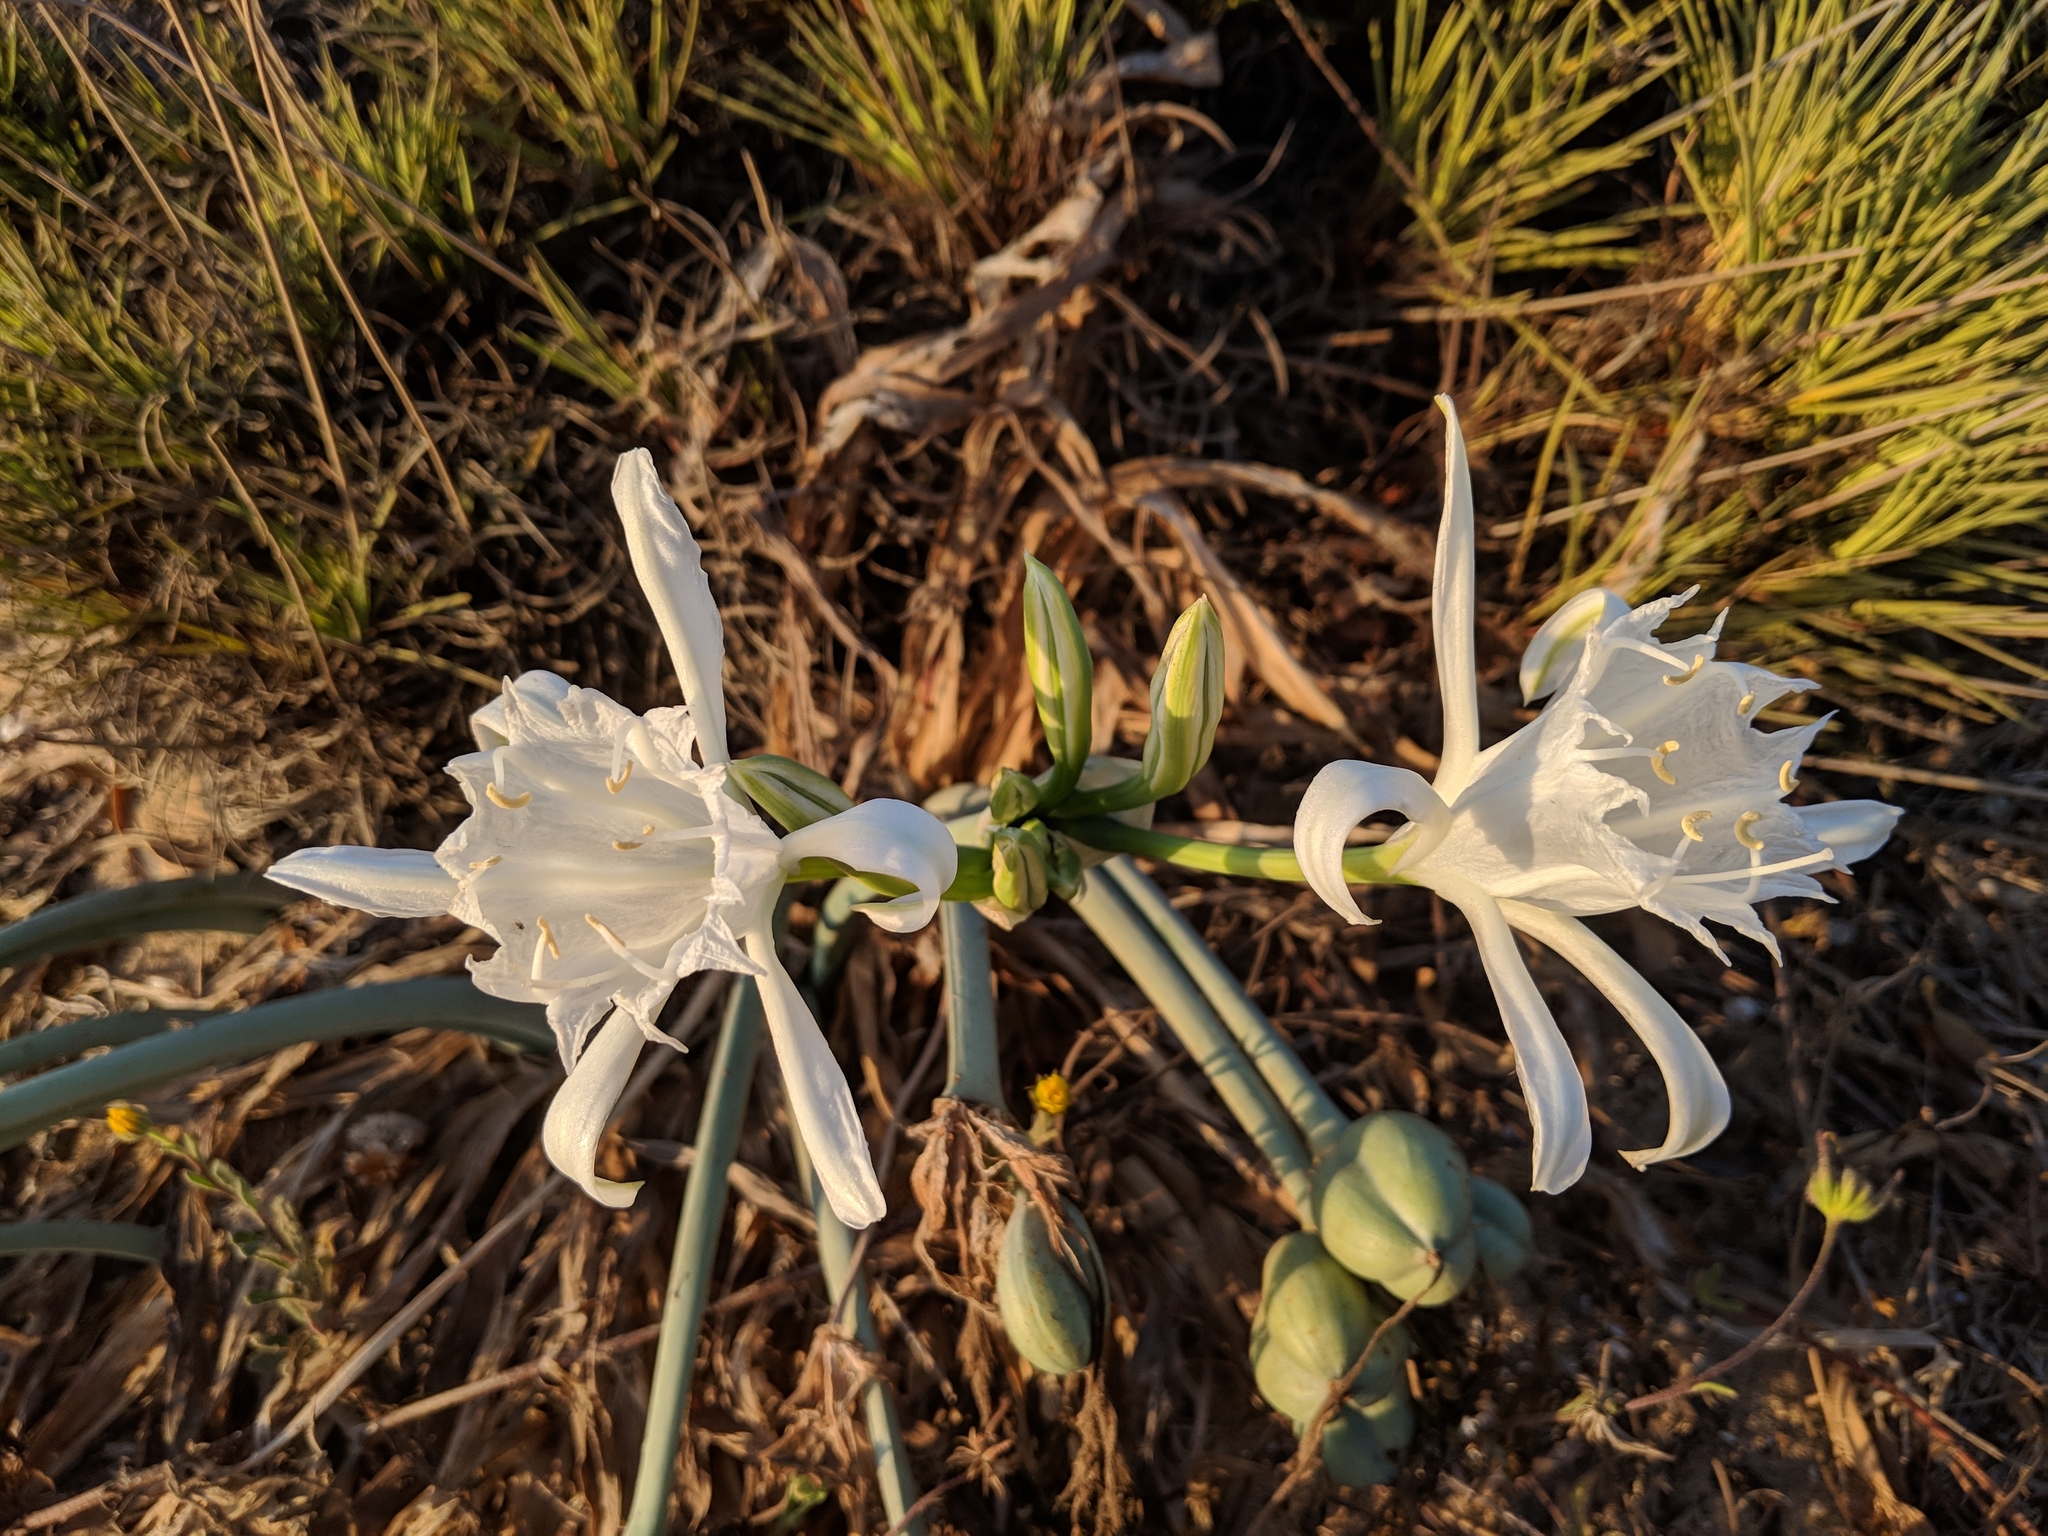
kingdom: Plantae
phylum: Tracheophyta
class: Liliopsida
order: Asparagales
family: Amaryllidaceae
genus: Pancratium
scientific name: Pancratium maritimum
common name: Sea-daffodil
